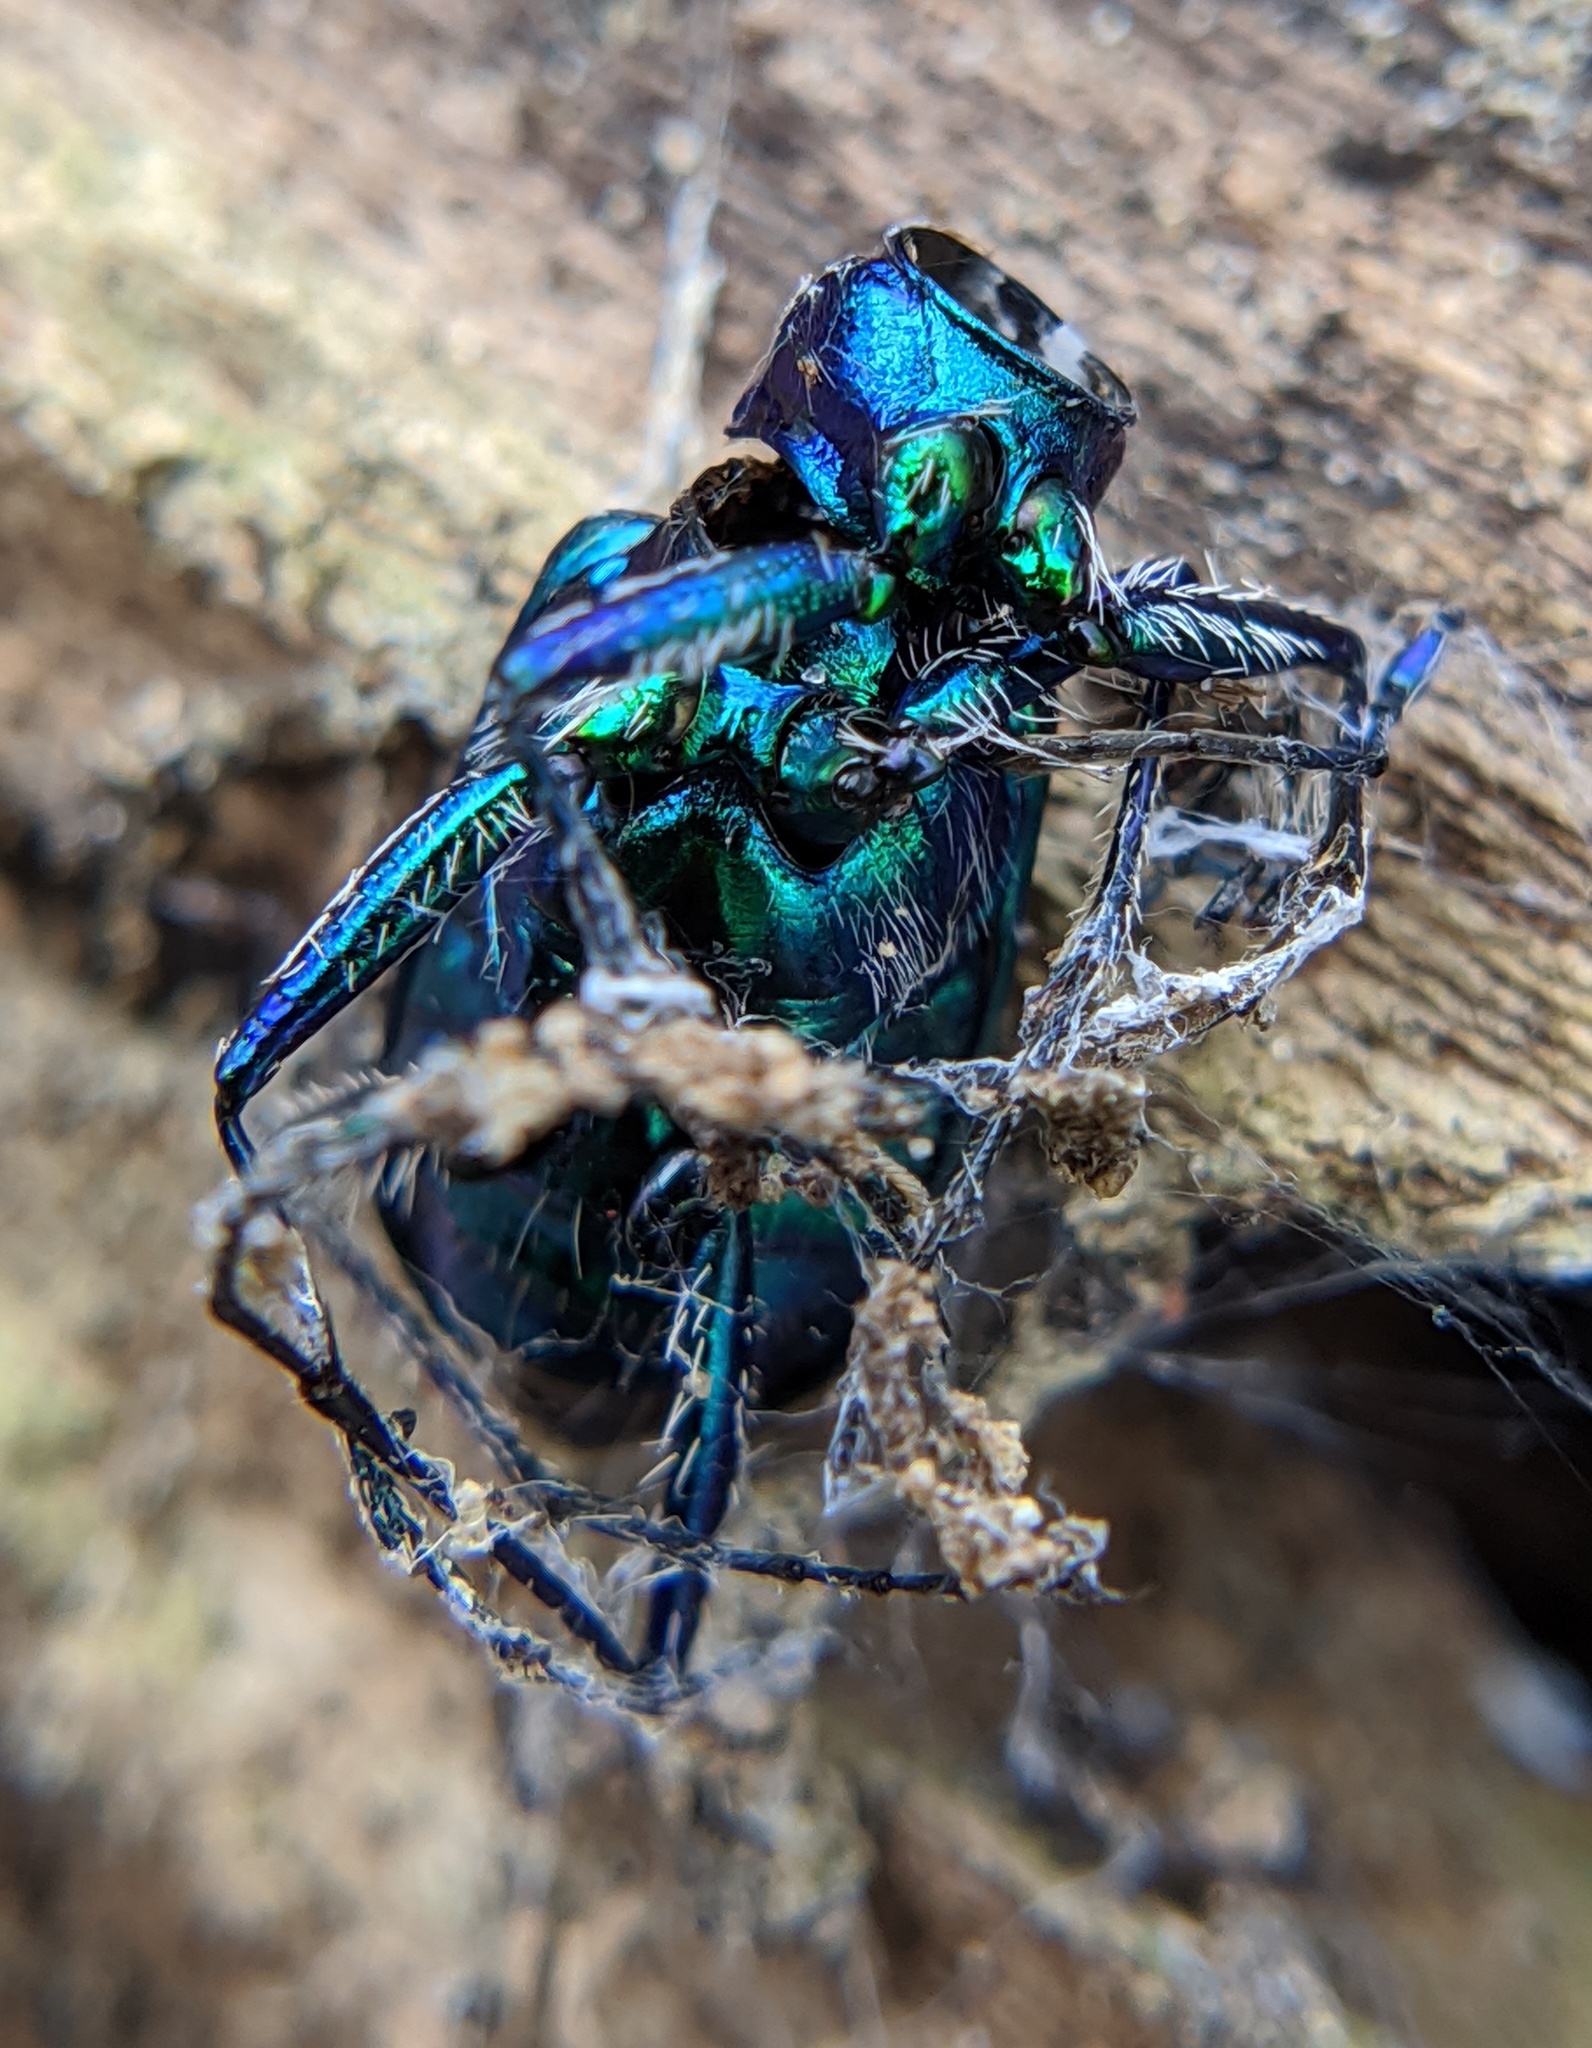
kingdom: Animalia
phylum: Arthropoda
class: Insecta
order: Coleoptera
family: Carabidae
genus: Cicindela
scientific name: Cicindela sexguttata
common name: Six-spotted tiger beetle
